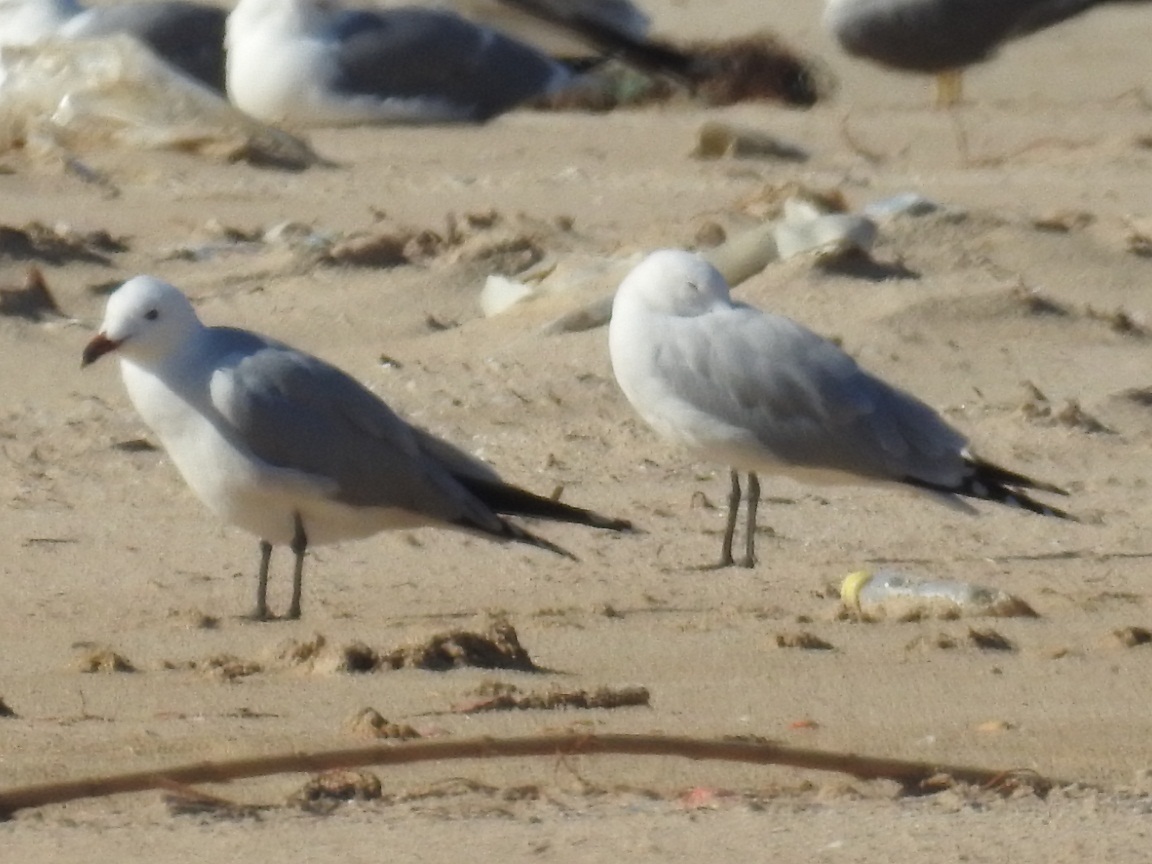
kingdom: Animalia
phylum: Chordata
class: Aves
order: Charadriiformes
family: Laridae
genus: Ichthyaetus
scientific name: Ichthyaetus audouinii
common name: Audouin's gull
